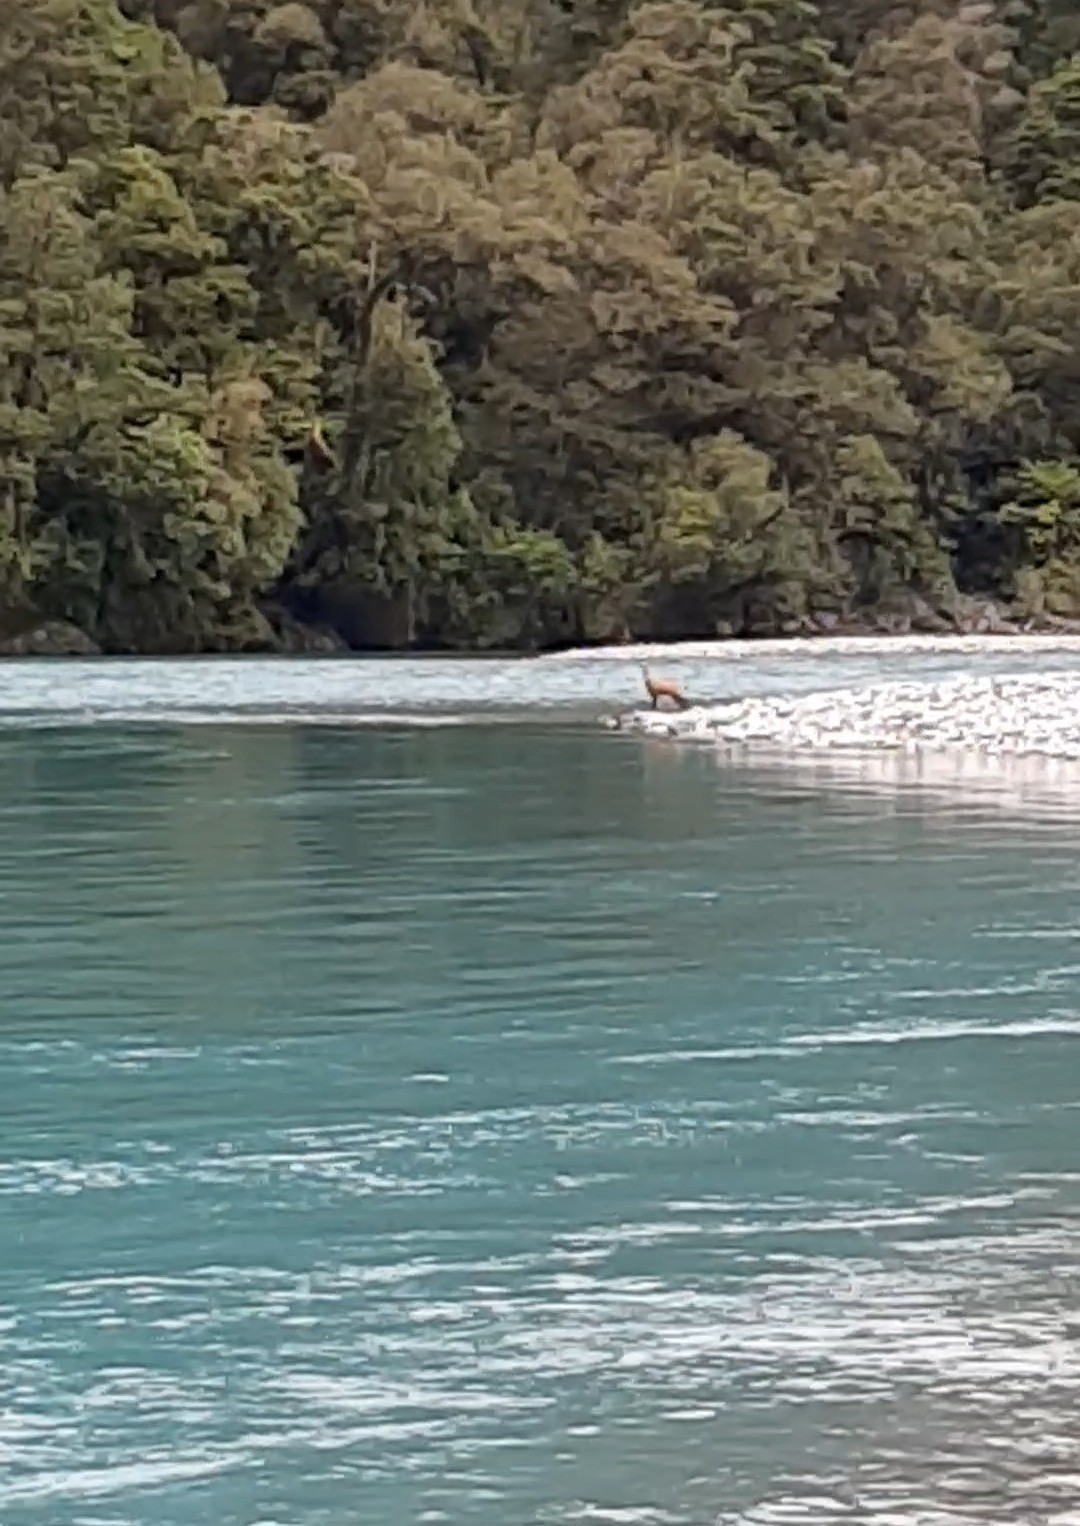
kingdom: Animalia
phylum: Chordata
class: Mammalia
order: Artiodactyla
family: Cervidae
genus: Cervus
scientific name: Cervus elaphus
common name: Red deer
